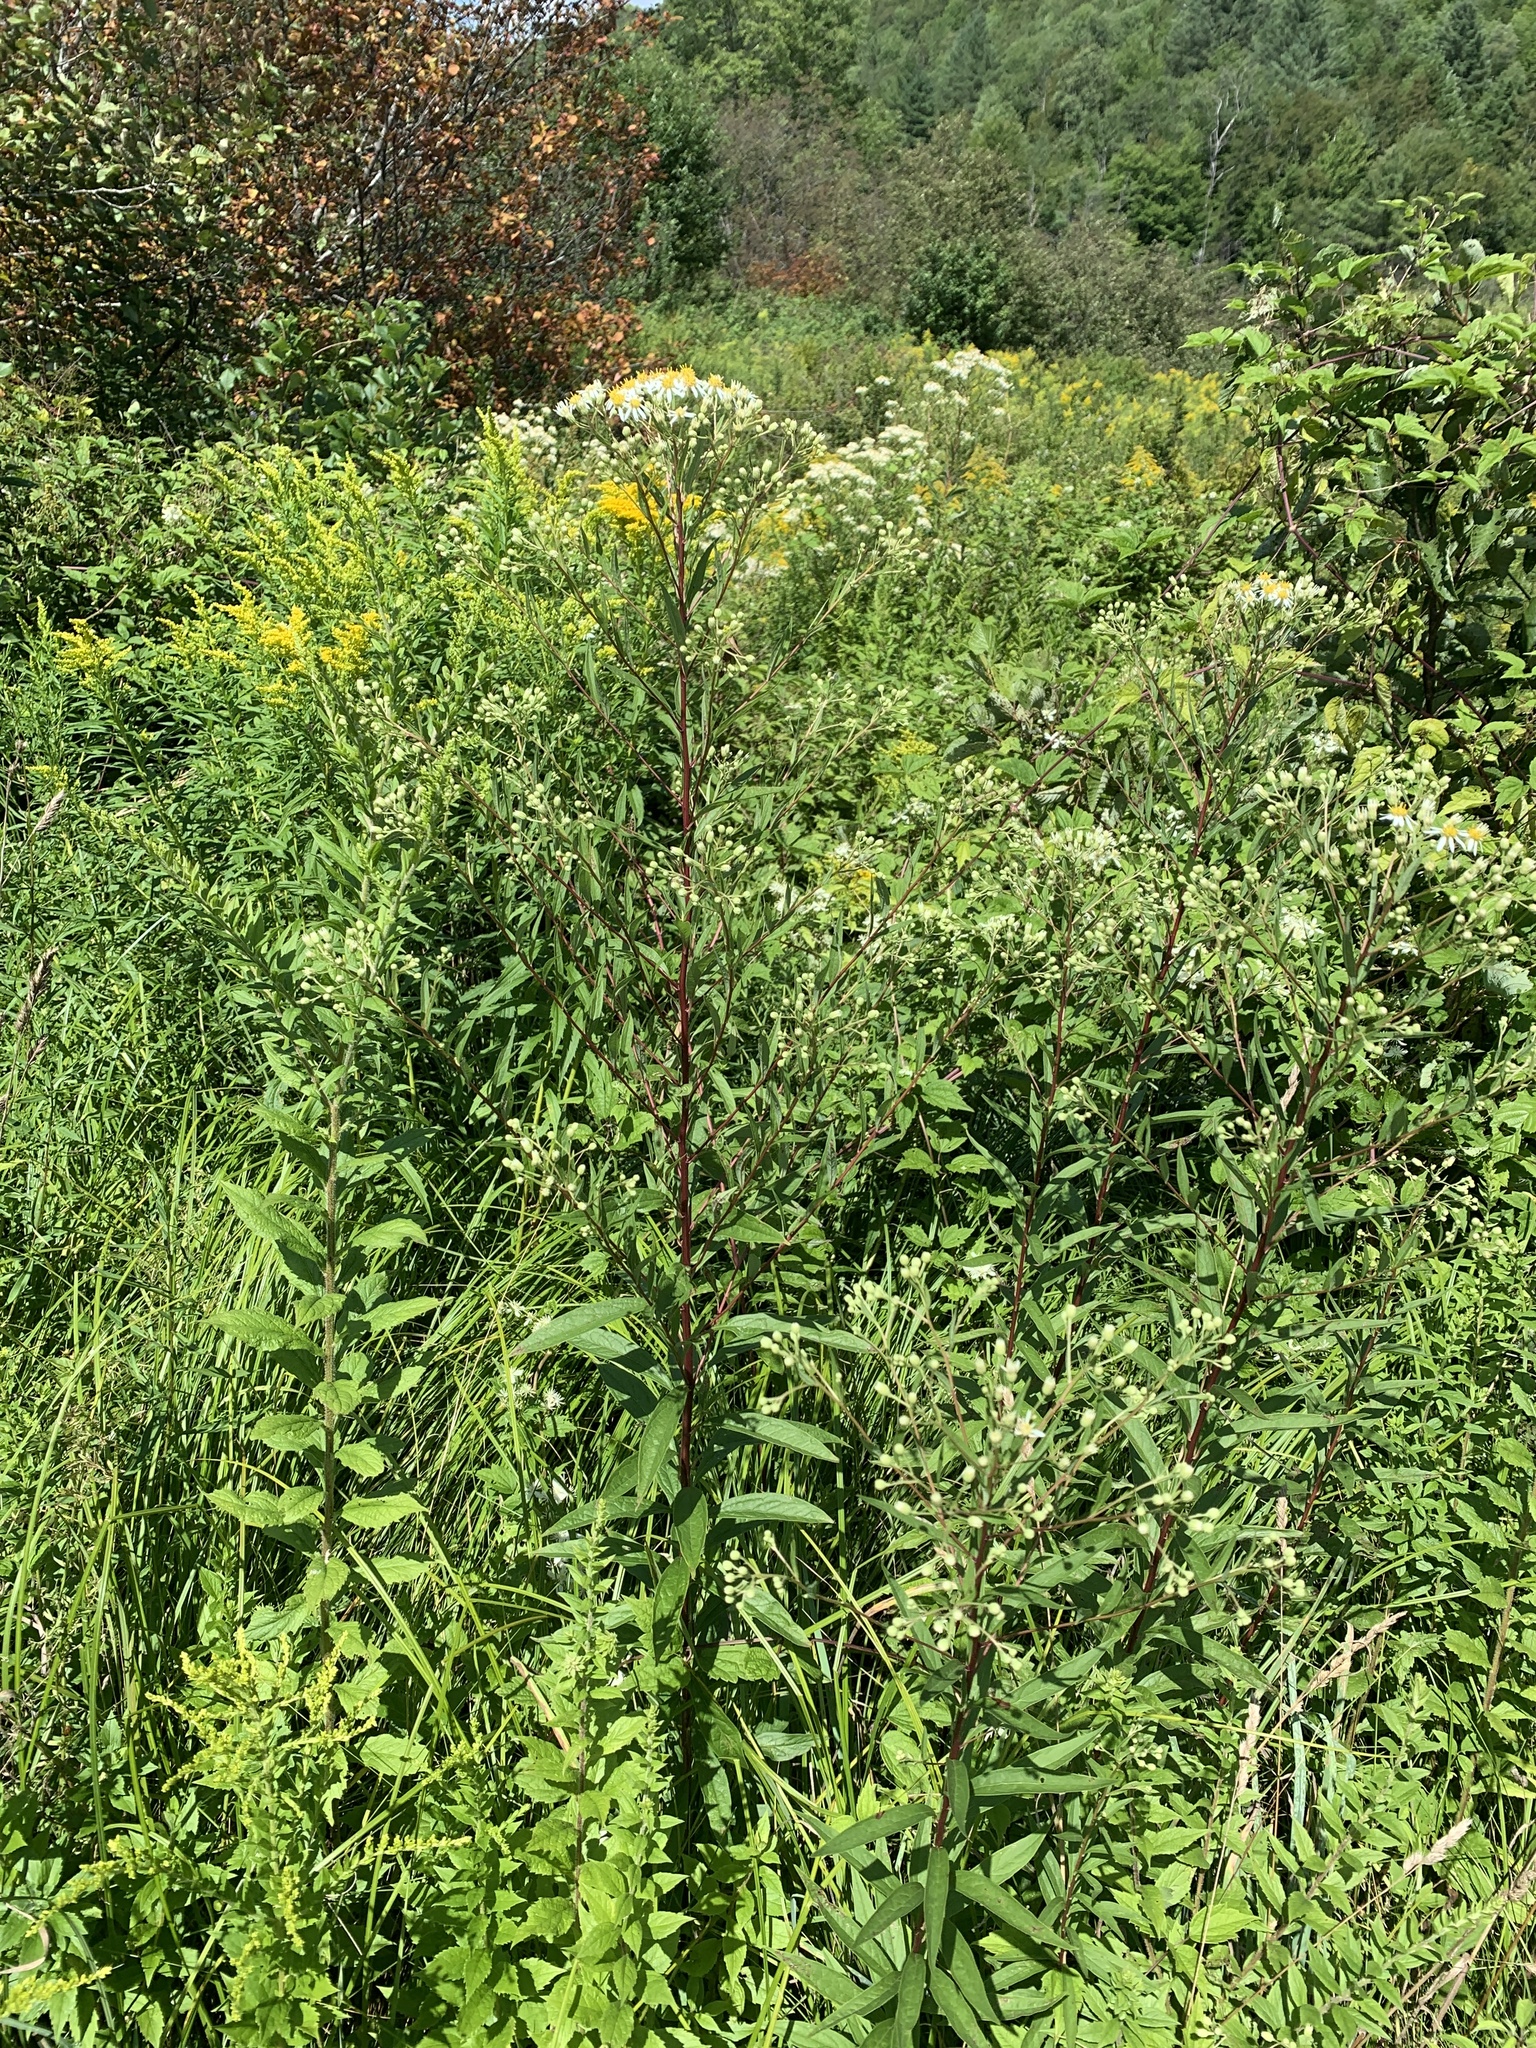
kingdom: Plantae
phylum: Tracheophyta
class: Magnoliopsida
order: Asterales
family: Asteraceae
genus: Doellingeria
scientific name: Doellingeria umbellata
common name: Flat-top white aster
